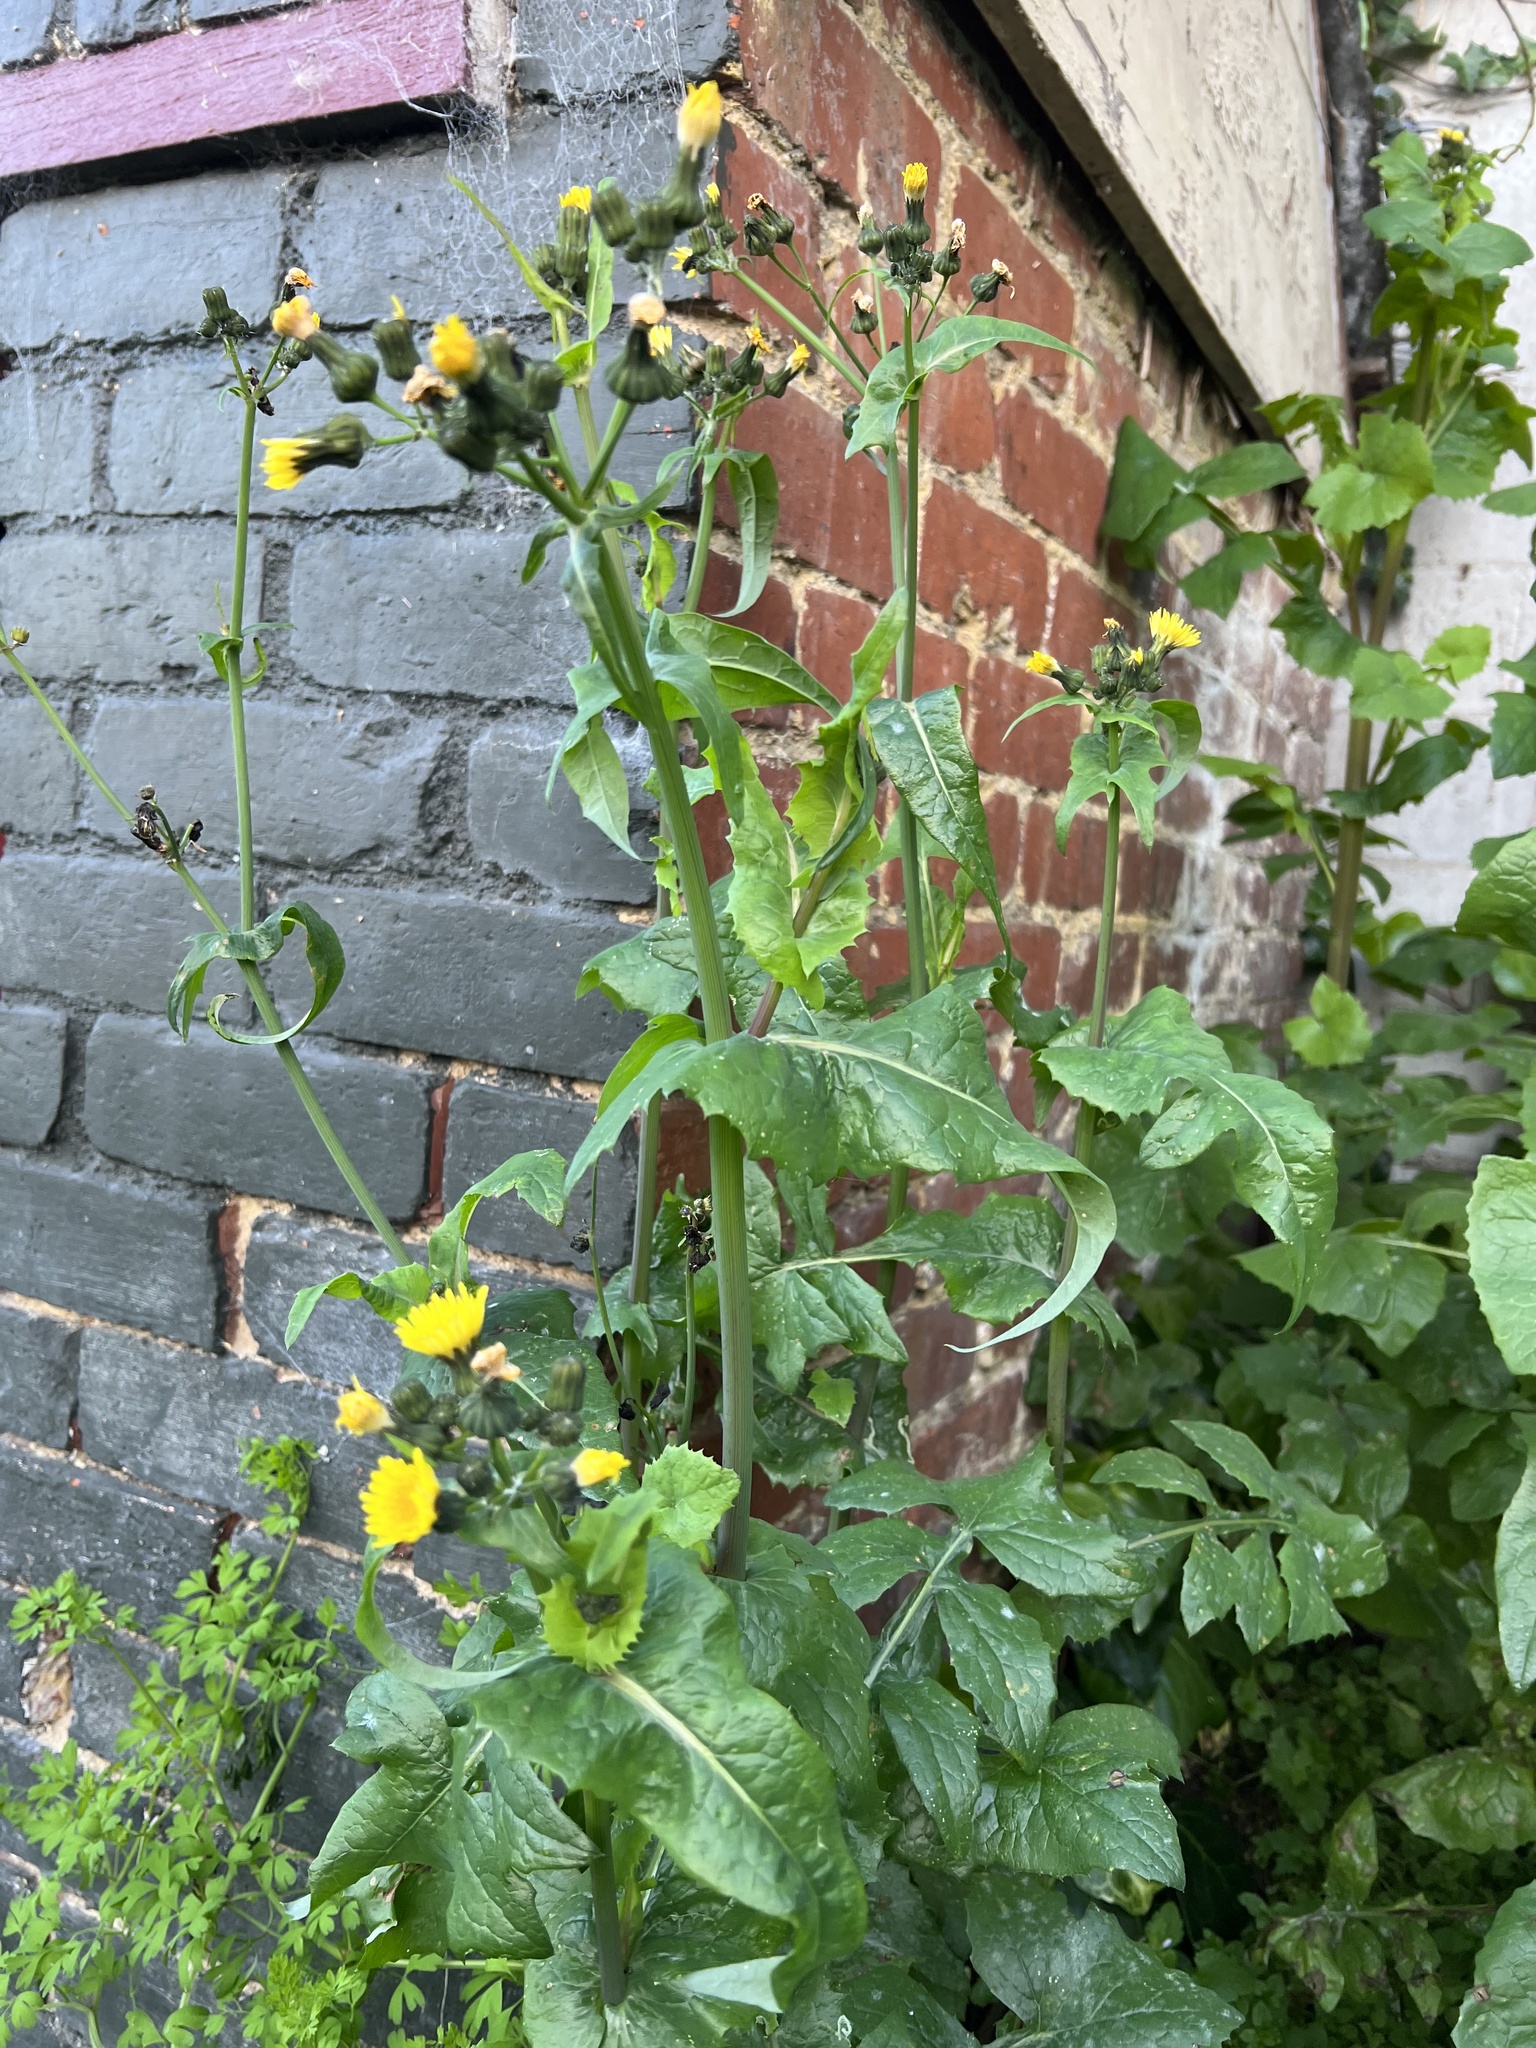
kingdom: Plantae
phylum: Tracheophyta
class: Magnoliopsida
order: Asterales
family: Asteraceae
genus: Sonchus
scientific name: Sonchus oleraceus
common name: Common sowthistle
